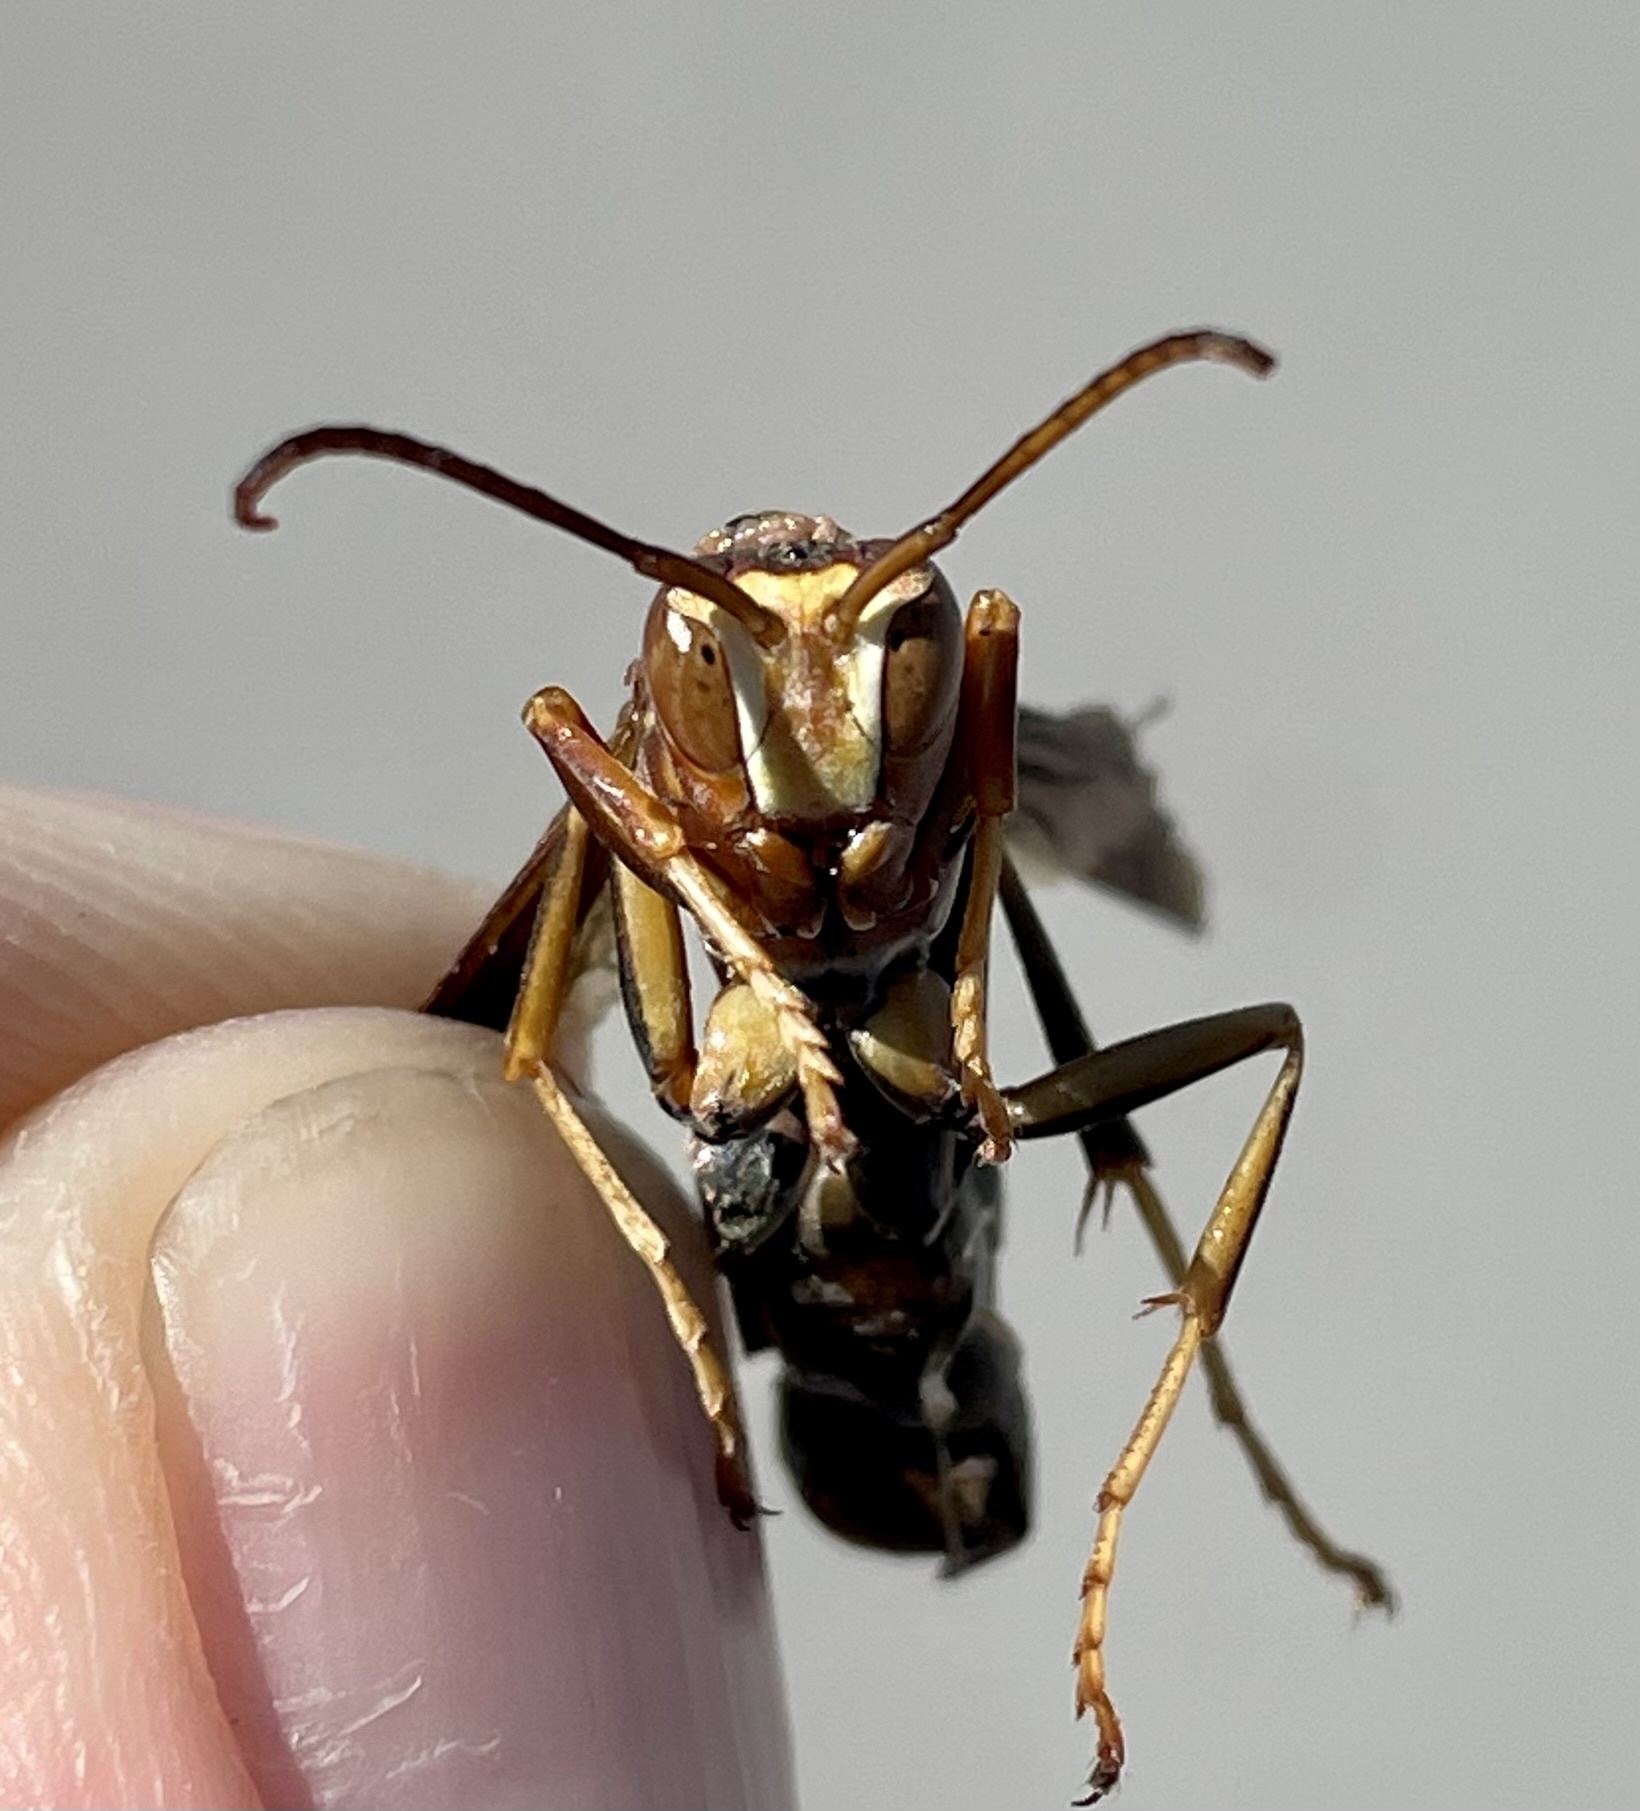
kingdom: Animalia
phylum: Arthropoda
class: Insecta
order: Hymenoptera
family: Eumenidae
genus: Polistes
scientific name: Polistes metricus
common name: Metric paper wasp
